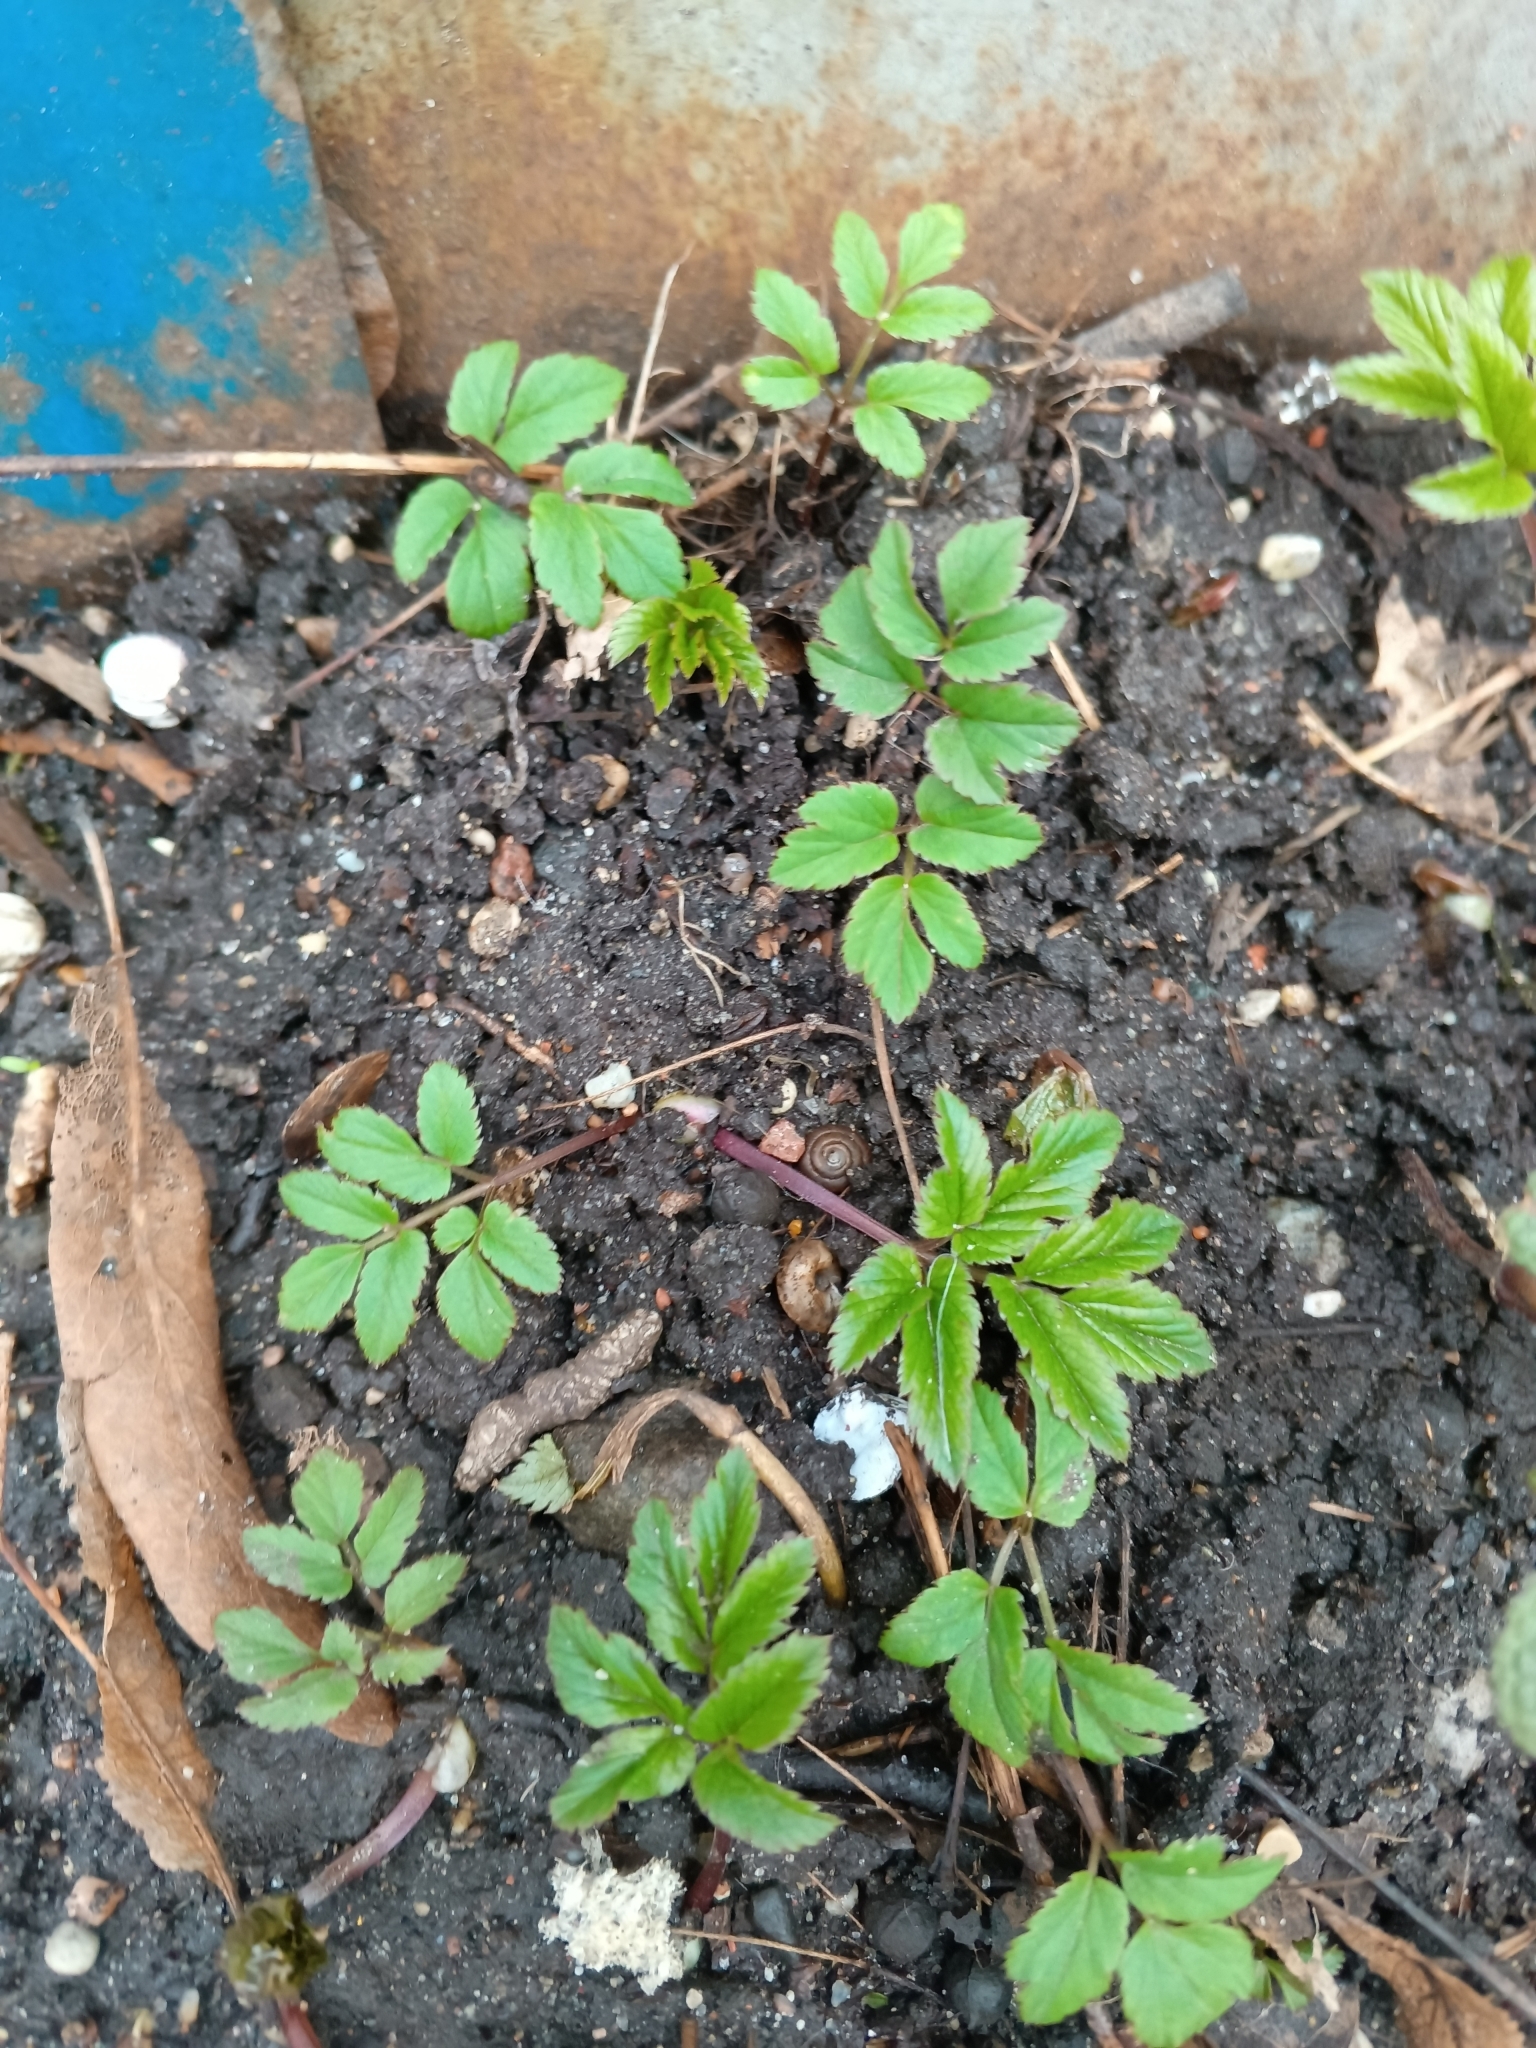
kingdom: Plantae
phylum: Tracheophyta
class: Magnoliopsida
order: Apiales
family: Apiaceae
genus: Aegopodium
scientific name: Aegopodium podagraria
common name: Ground-elder
